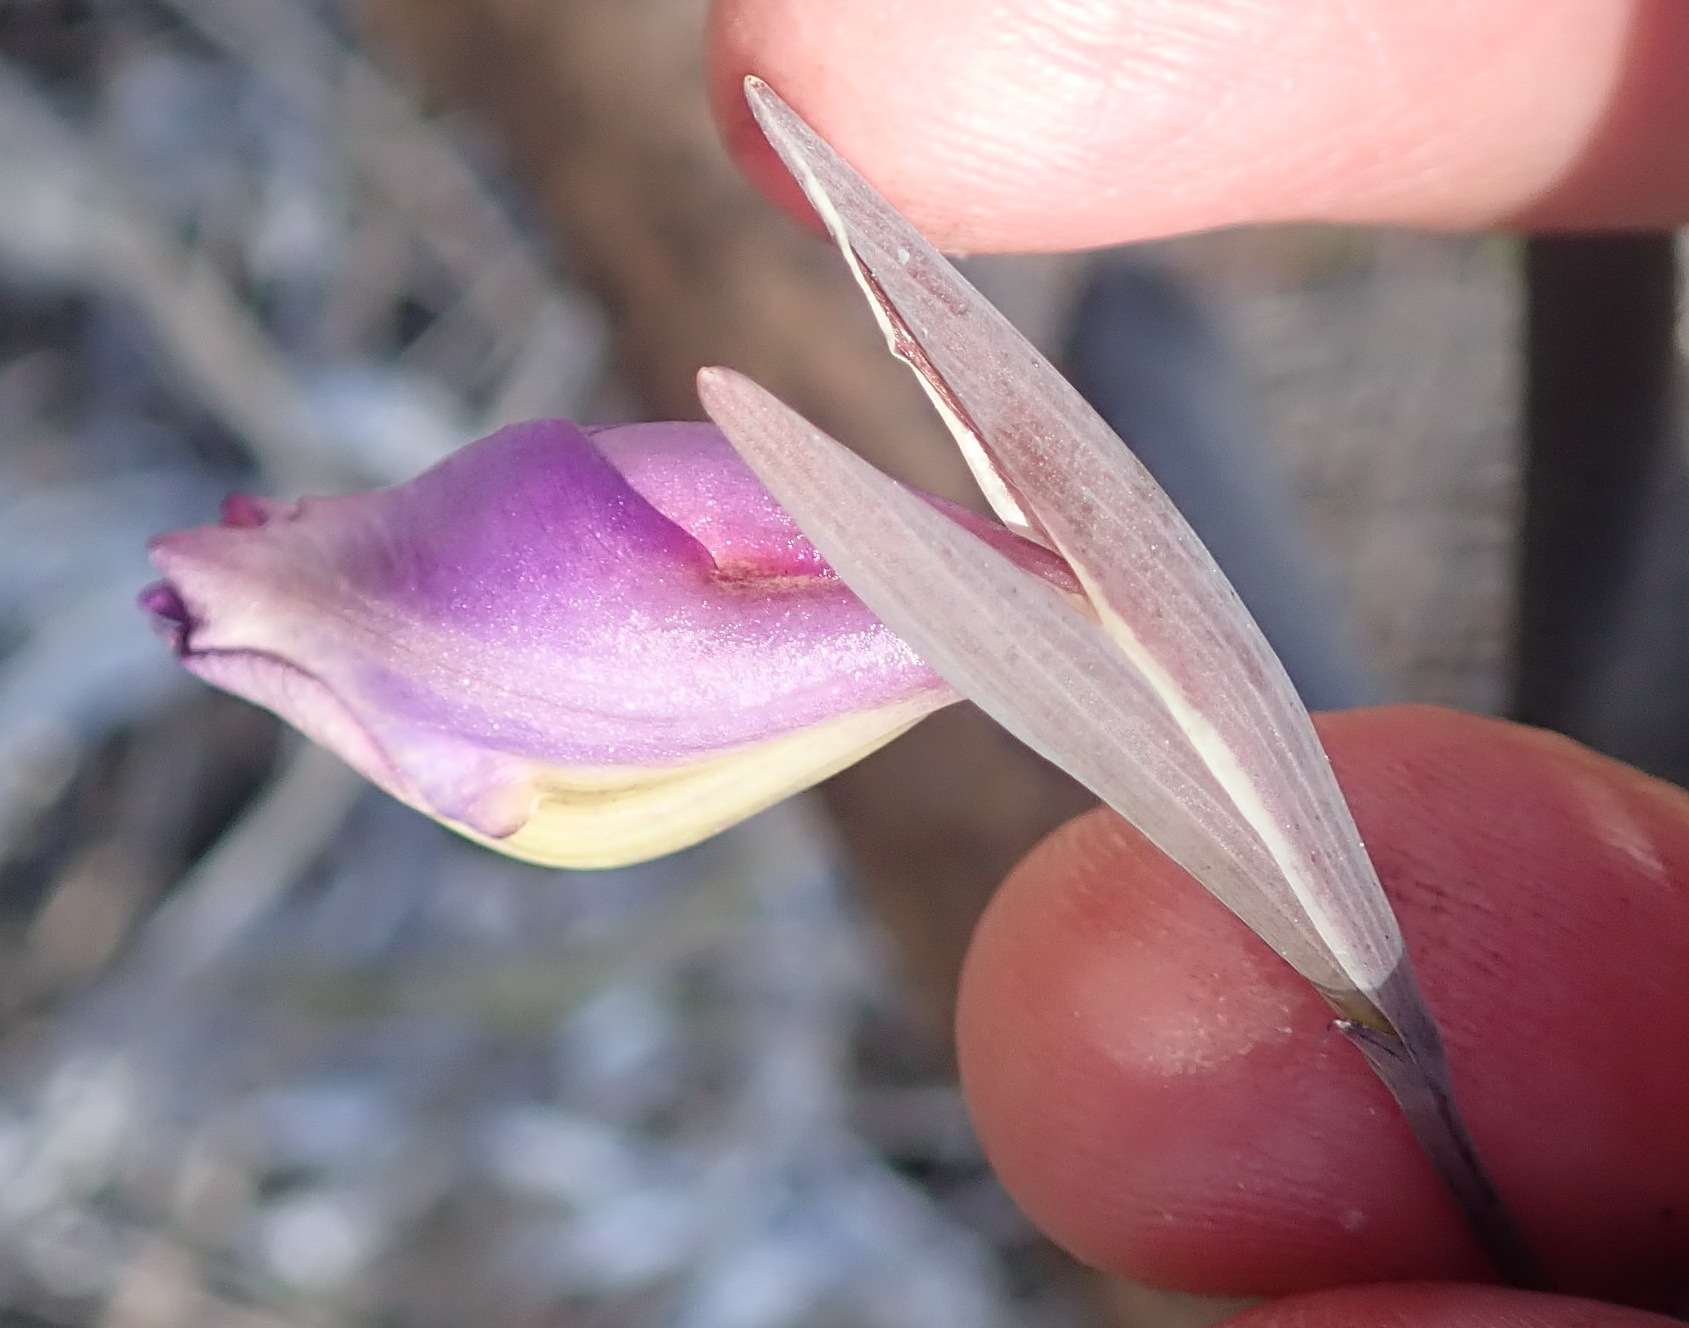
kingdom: Plantae
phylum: Tracheophyta
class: Liliopsida
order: Asparagales
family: Iridaceae
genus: Gladiolus
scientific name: Gladiolus rogersii
